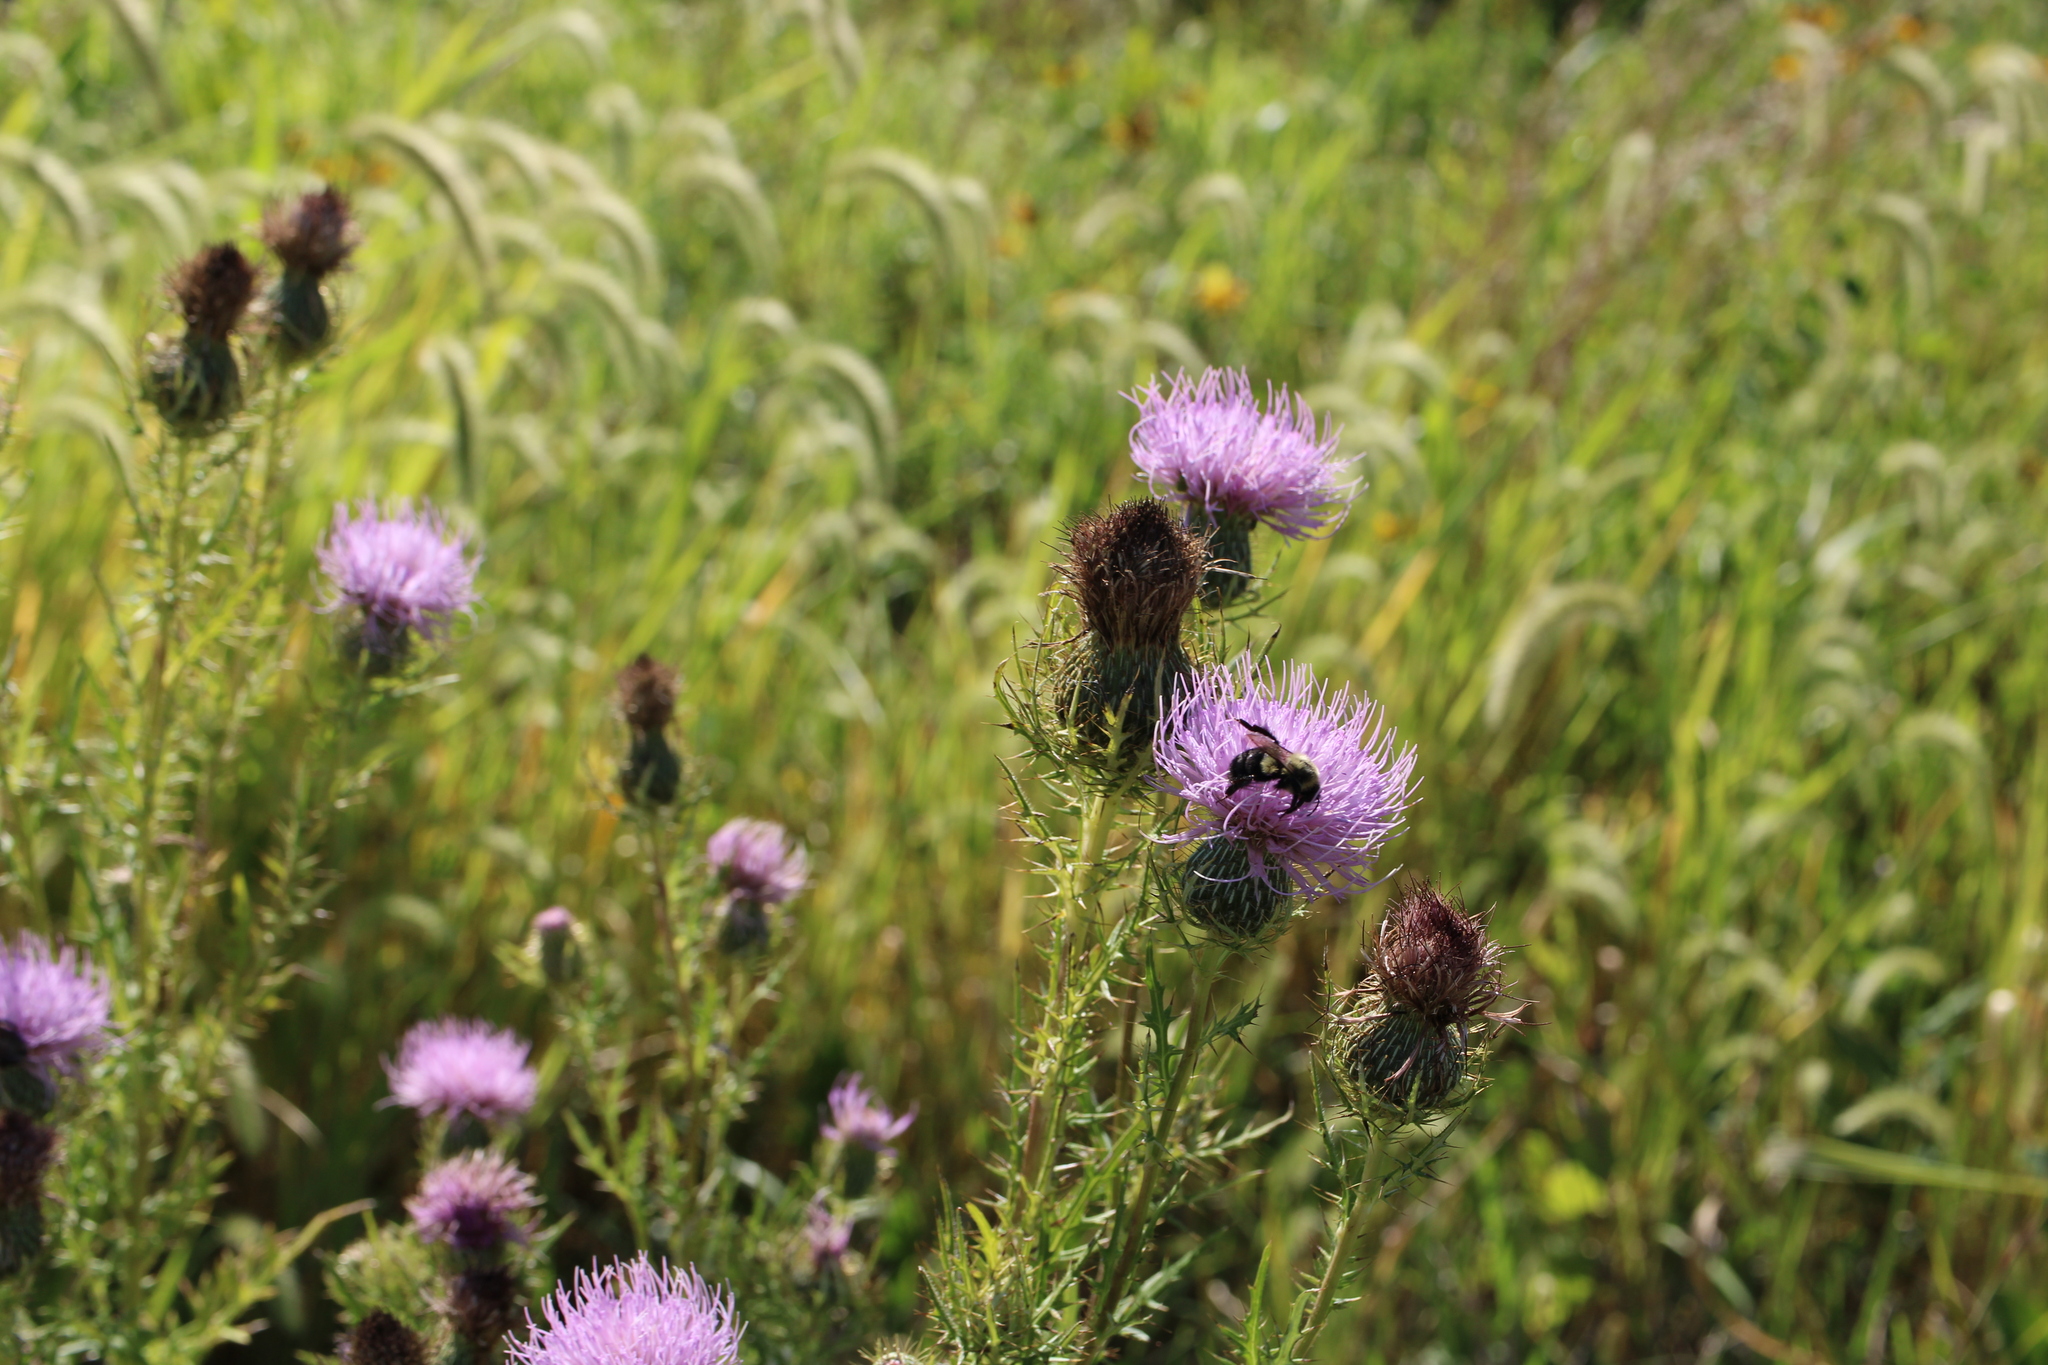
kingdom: Animalia
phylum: Arthropoda
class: Insecta
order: Hymenoptera
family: Apidae
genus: Bombus
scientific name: Bombus impatiens
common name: Common eastern bumble bee
